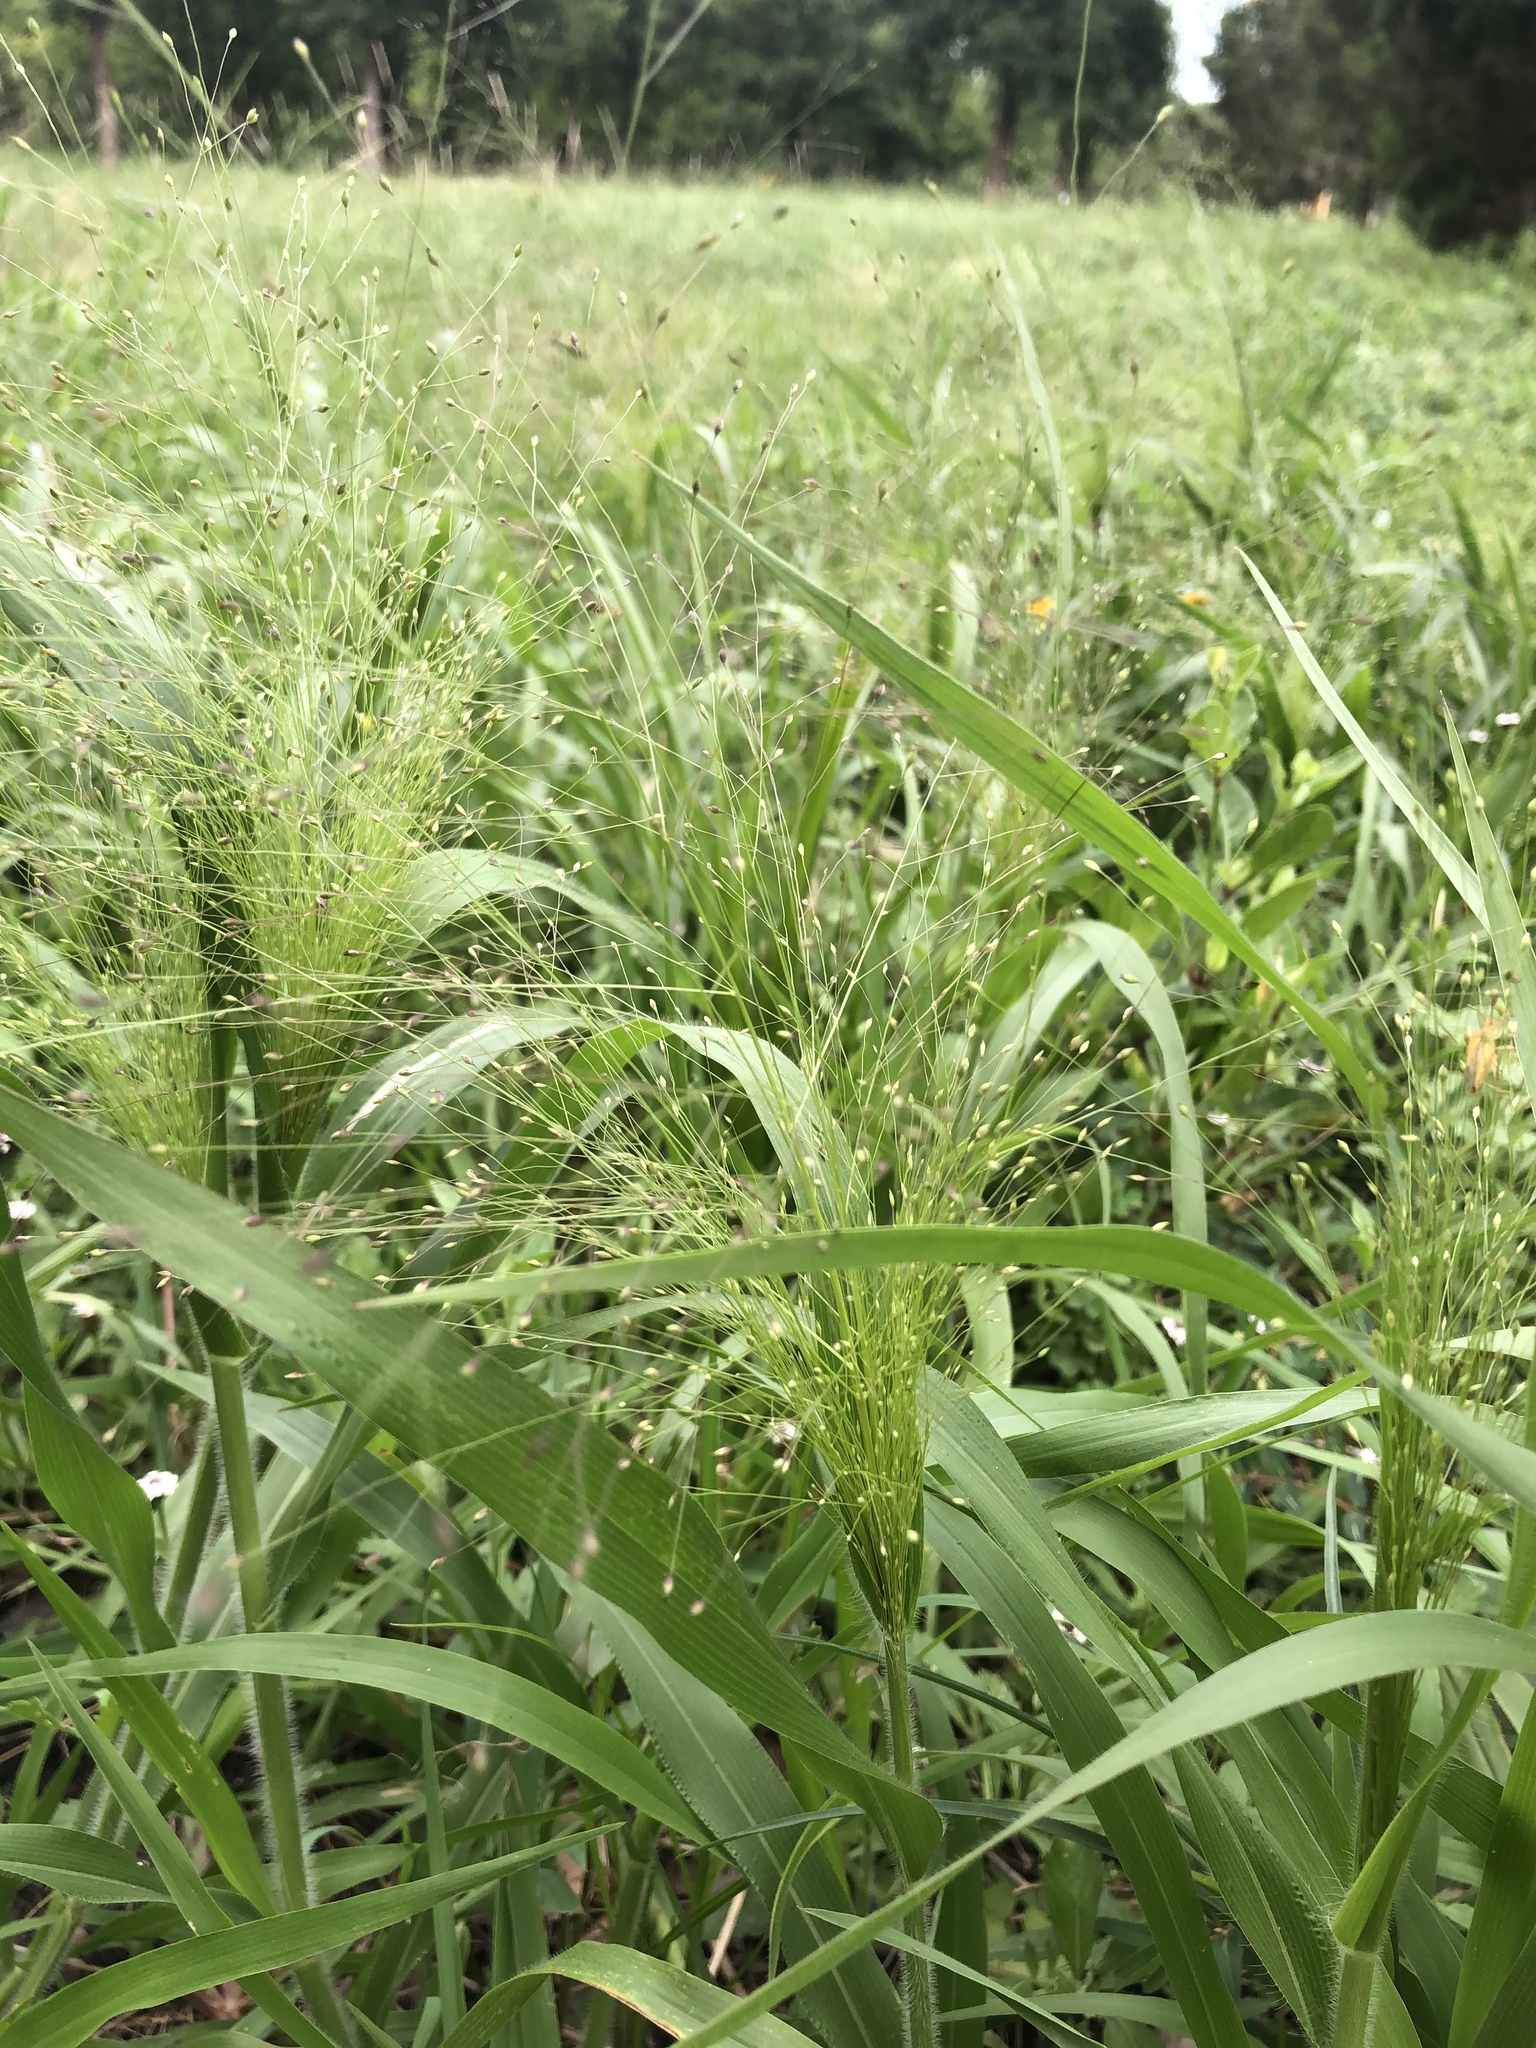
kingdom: Plantae
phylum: Tracheophyta
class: Liliopsida
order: Poales
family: Poaceae
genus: Panicum
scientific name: Panicum capillare
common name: Witch-grass
